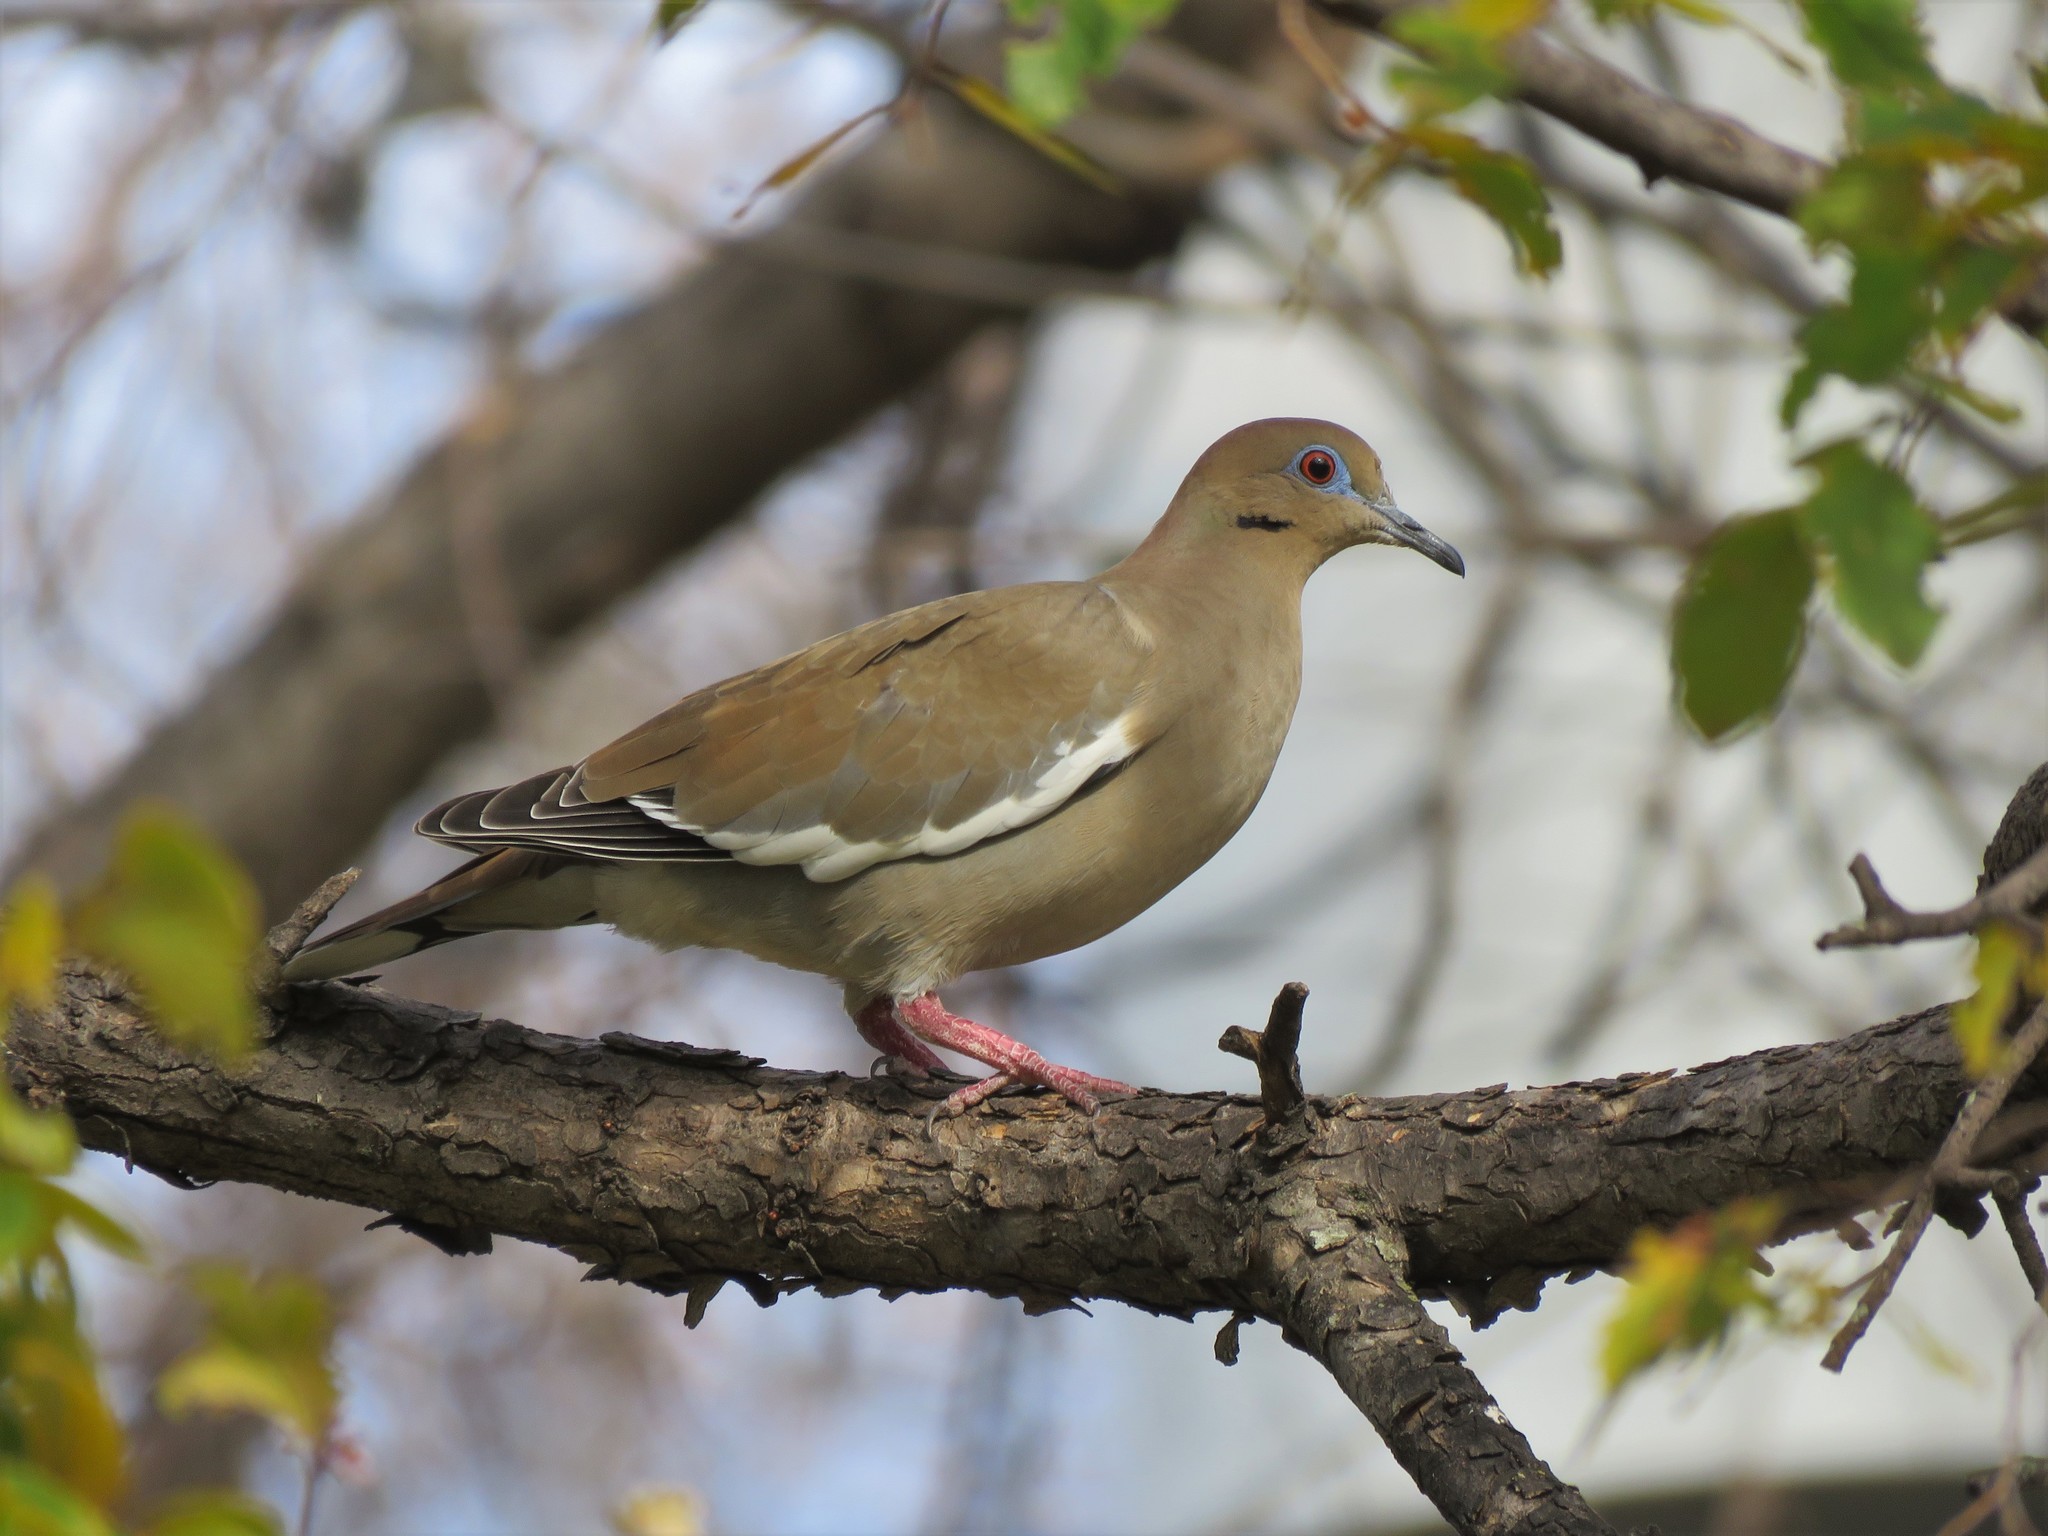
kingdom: Animalia
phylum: Chordata
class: Aves
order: Columbiformes
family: Columbidae
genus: Zenaida
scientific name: Zenaida asiatica
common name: White-winged dove
